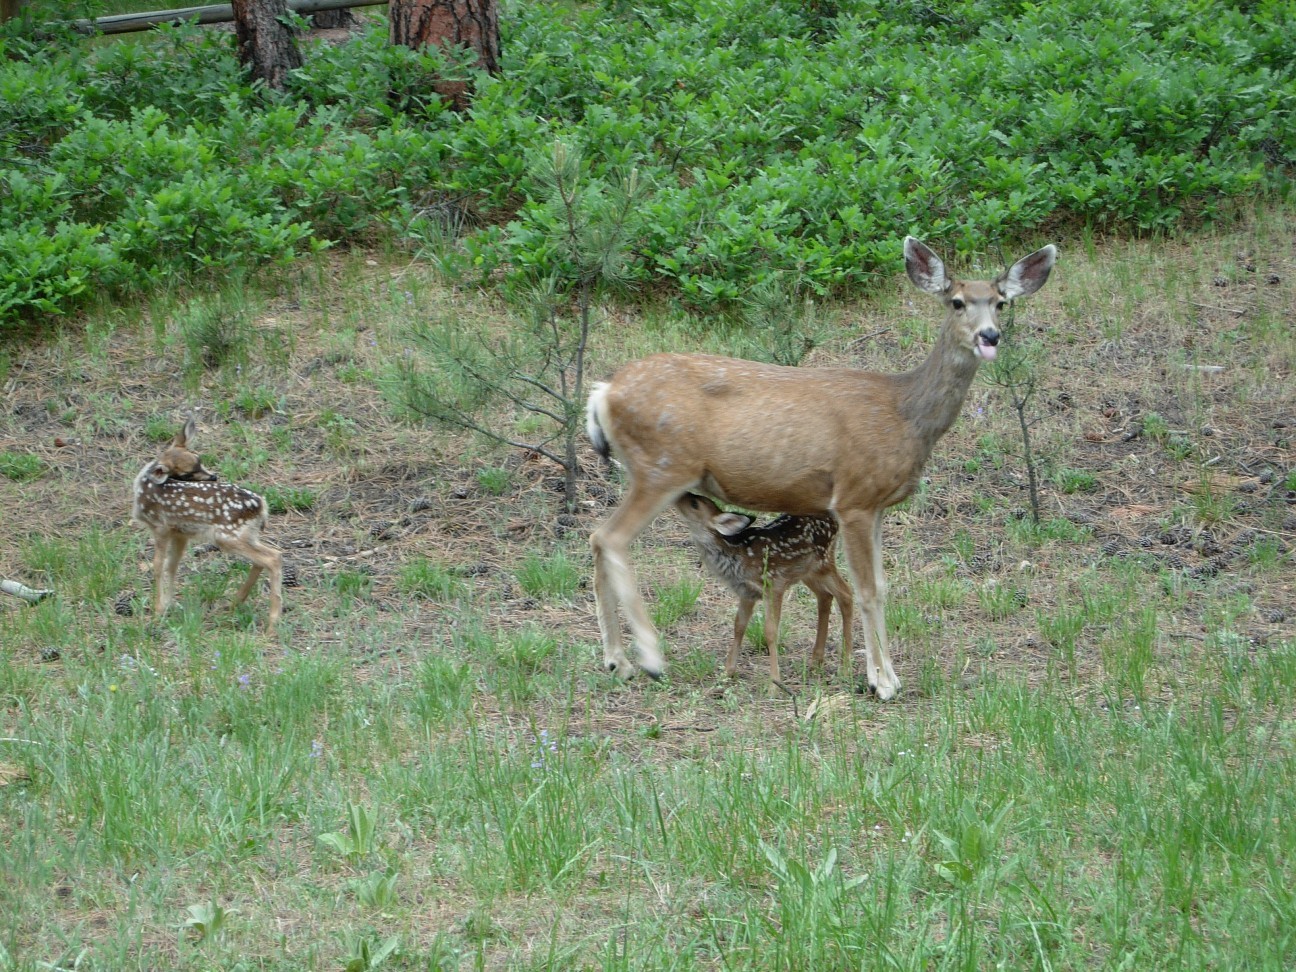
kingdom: Animalia
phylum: Chordata
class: Mammalia
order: Artiodactyla
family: Cervidae
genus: Odocoileus
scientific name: Odocoileus hemionus
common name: Mule deer
